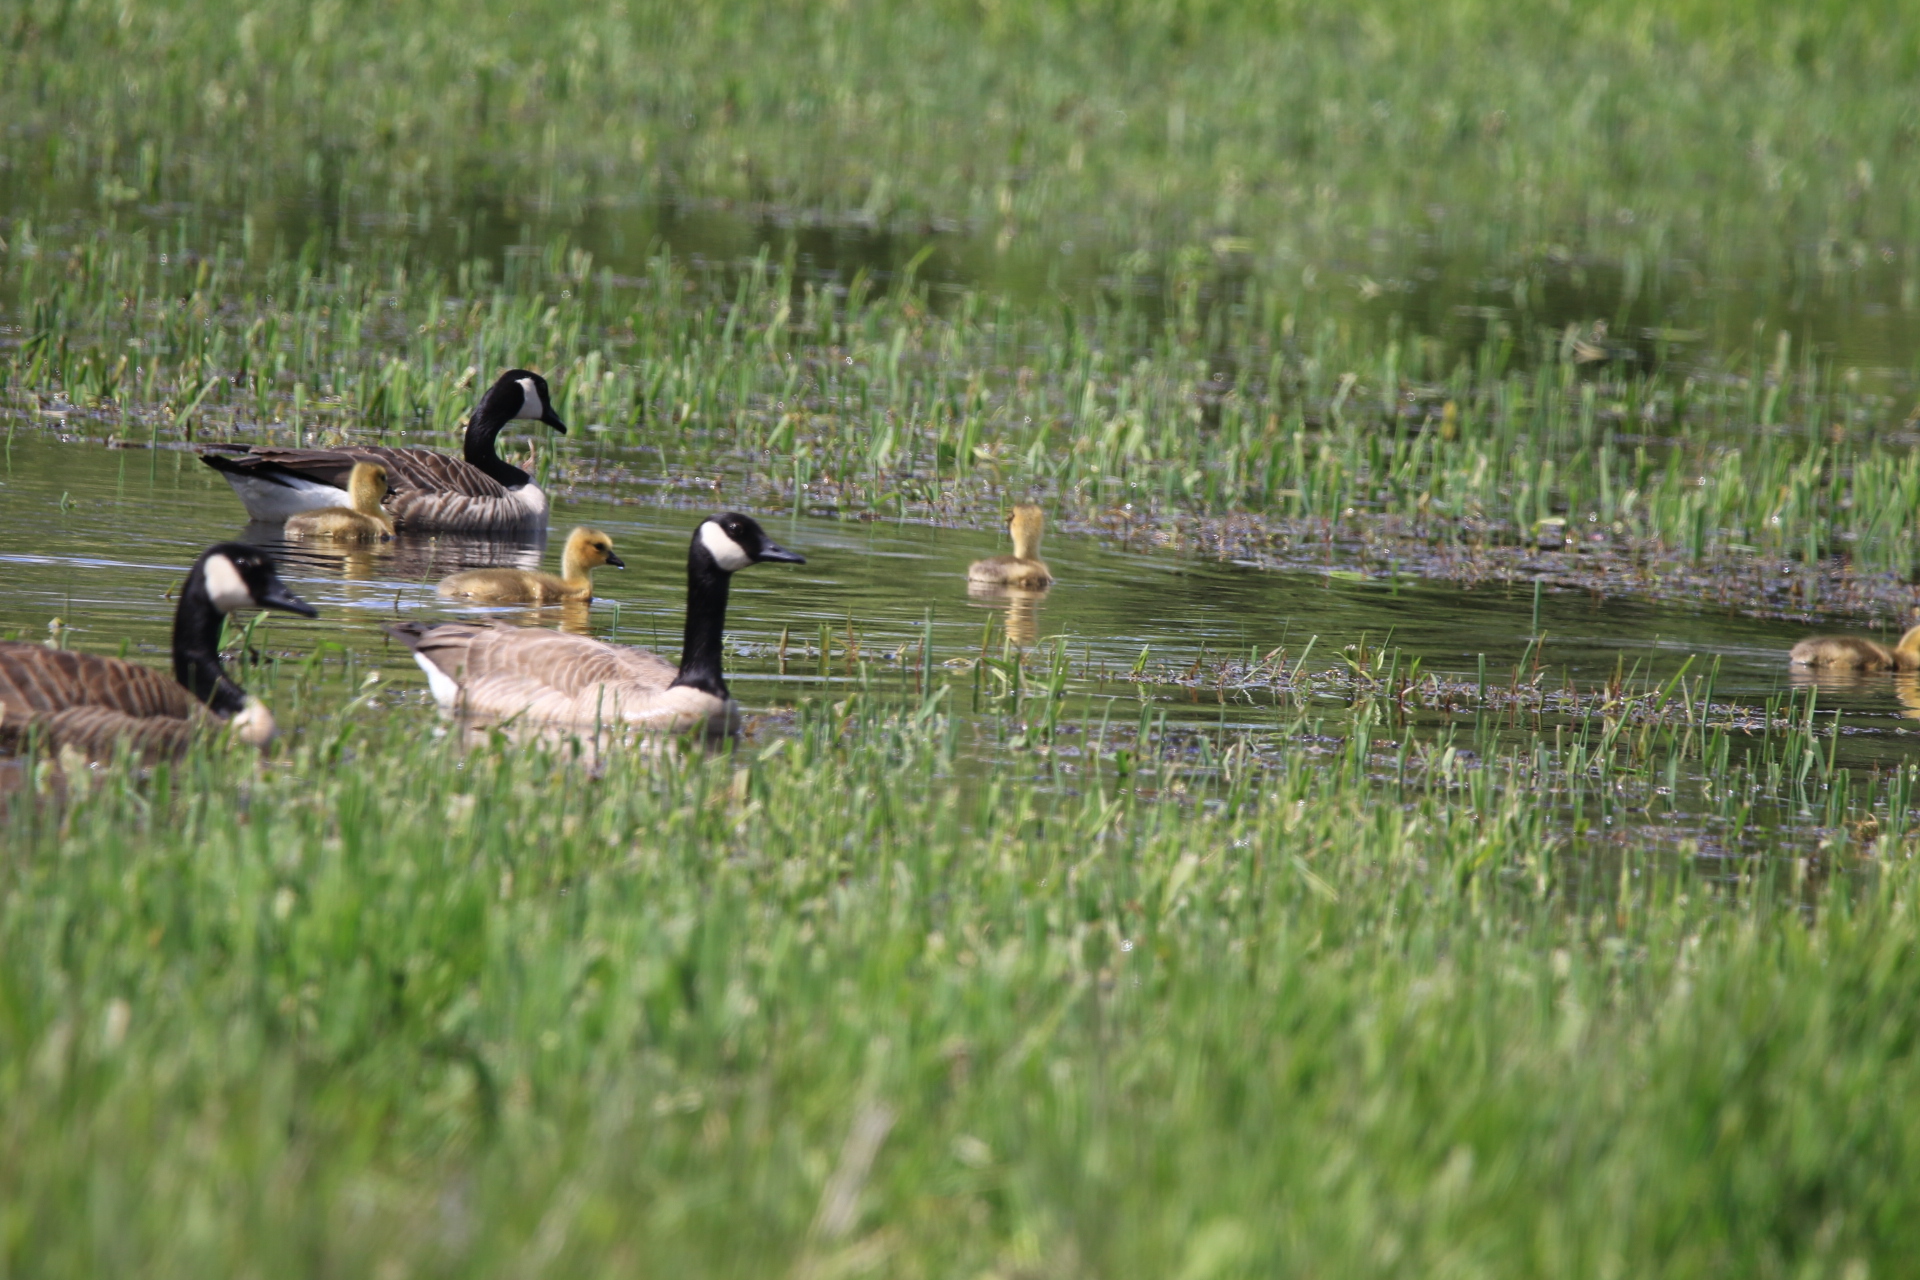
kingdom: Animalia
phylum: Chordata
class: Aves
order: Anseriformes
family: Anatidae
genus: Branta
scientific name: Branta canadensis
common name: Canada goose
